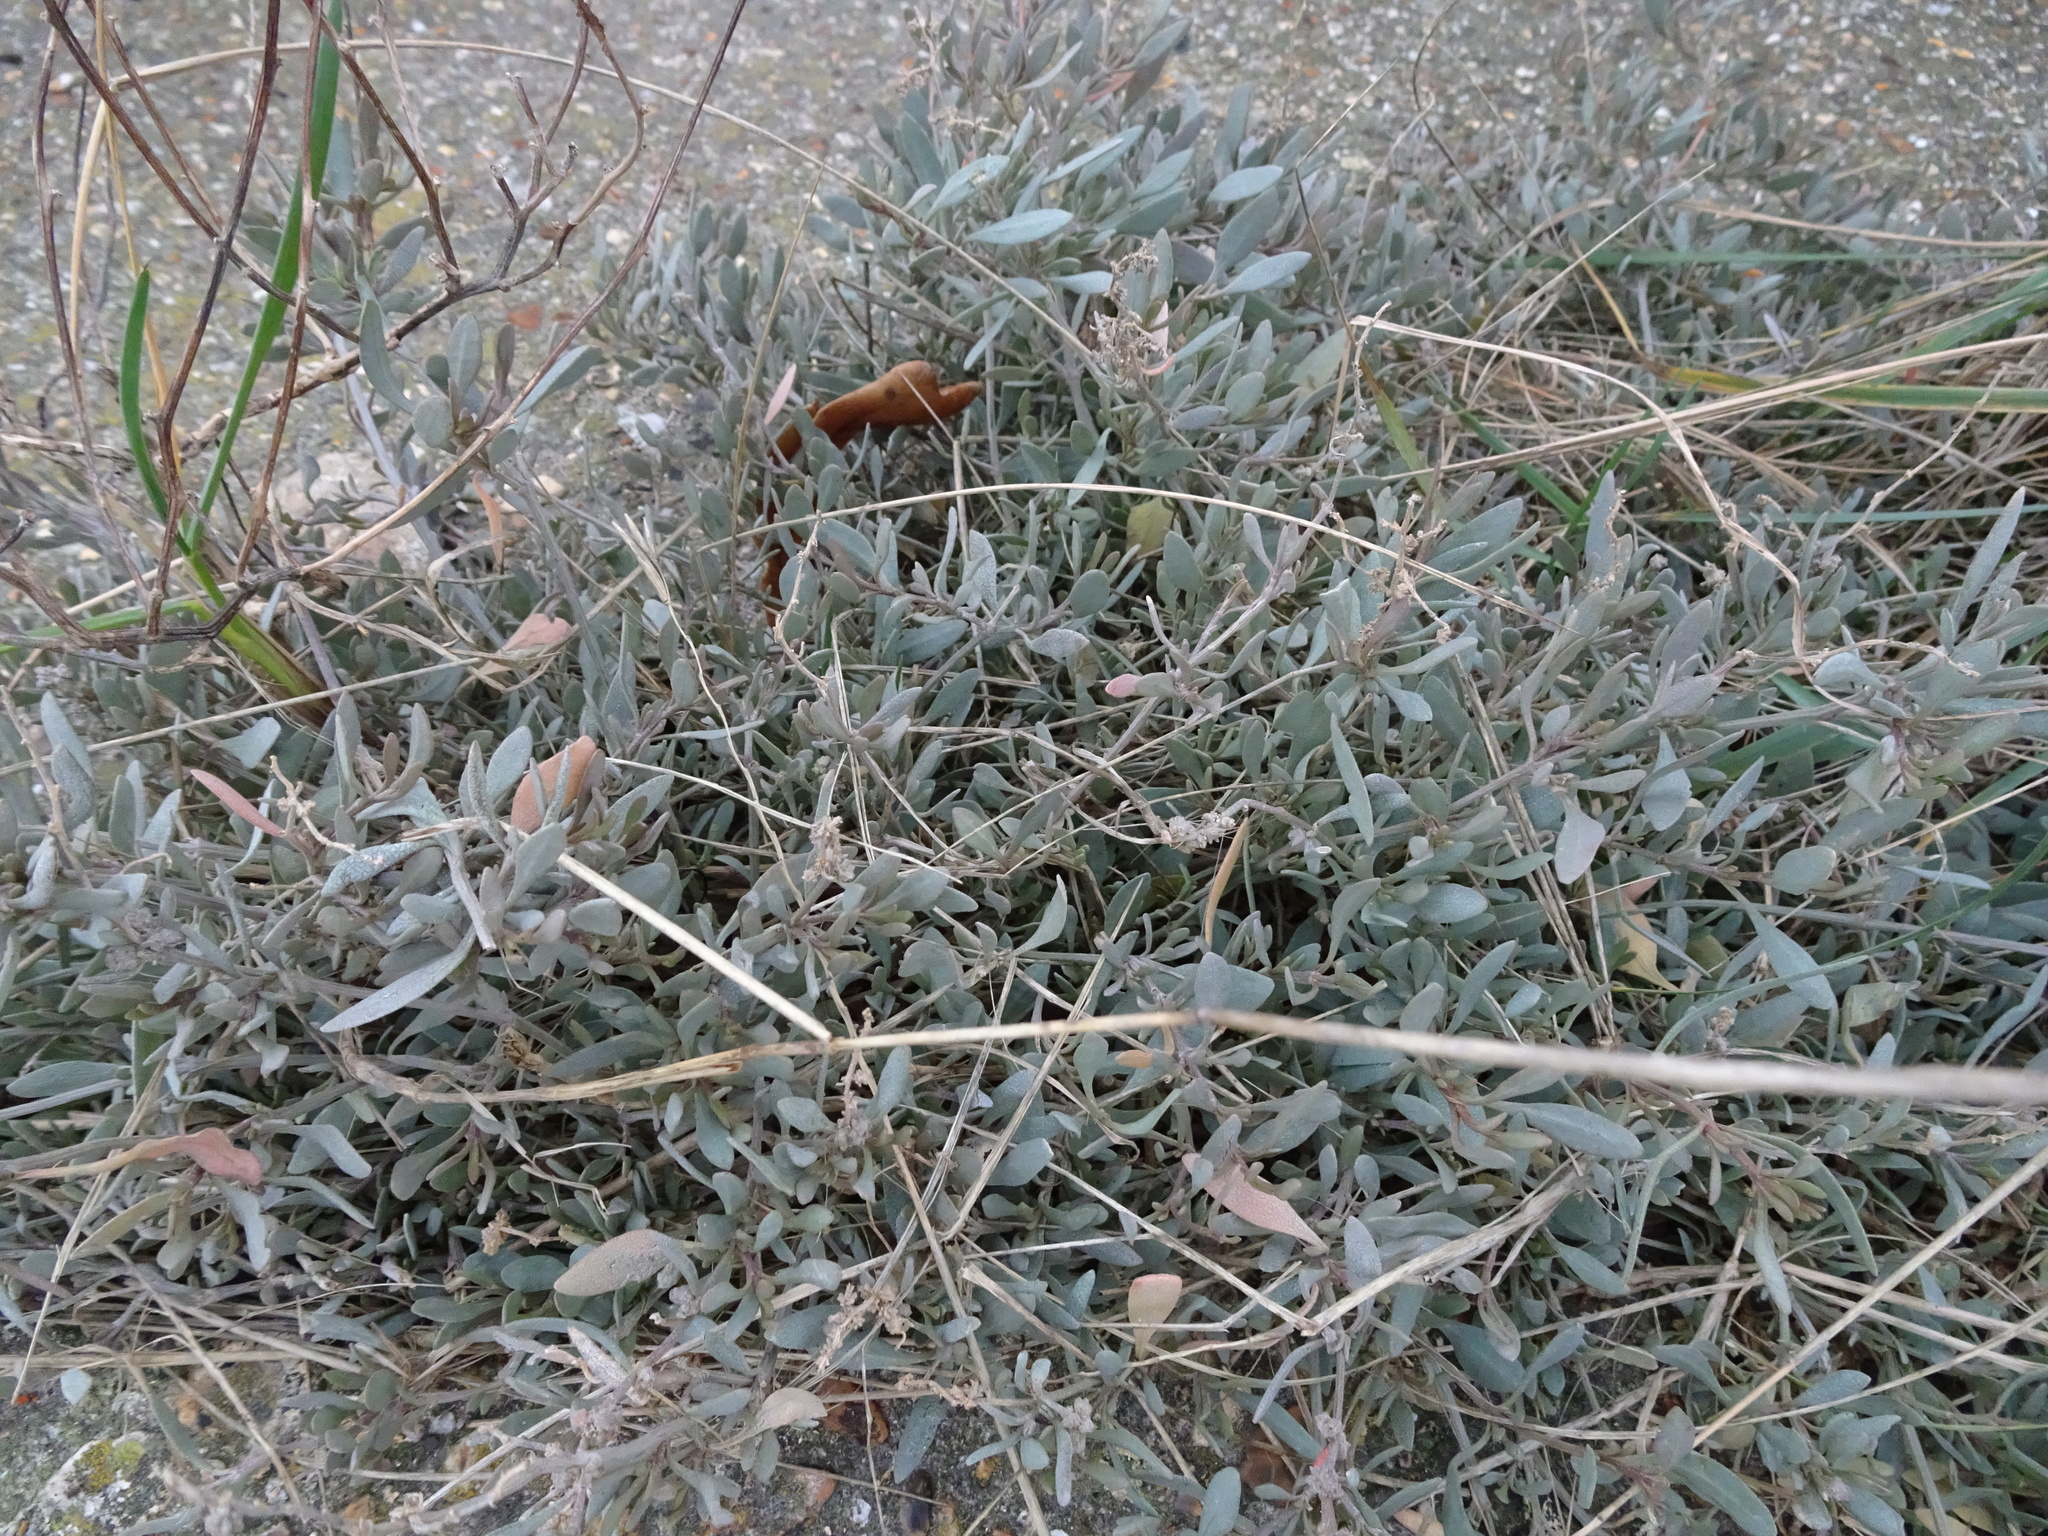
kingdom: Plantae
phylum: Tracheophyta
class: Magnoliopsida
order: Caryophyllales
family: Amaranthaceae
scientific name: Amaranthaceae
